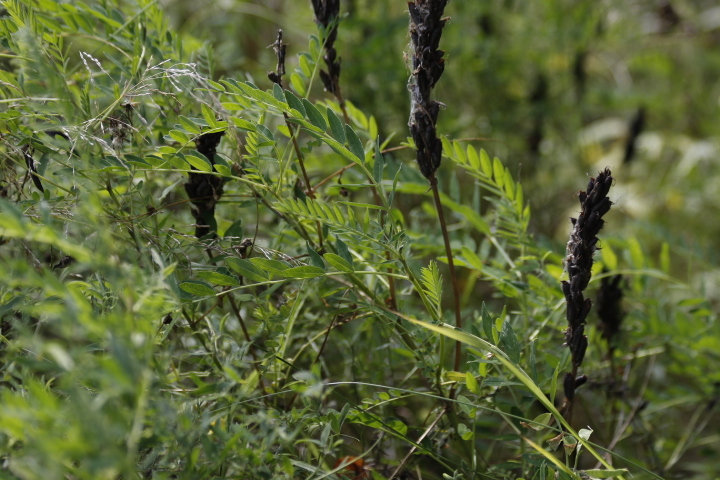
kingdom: Plantae
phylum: Tracheophyta
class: Magnoliopsida
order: Fabales
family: Fabaceae
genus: Astragalus
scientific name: Astragalus uliginosus
